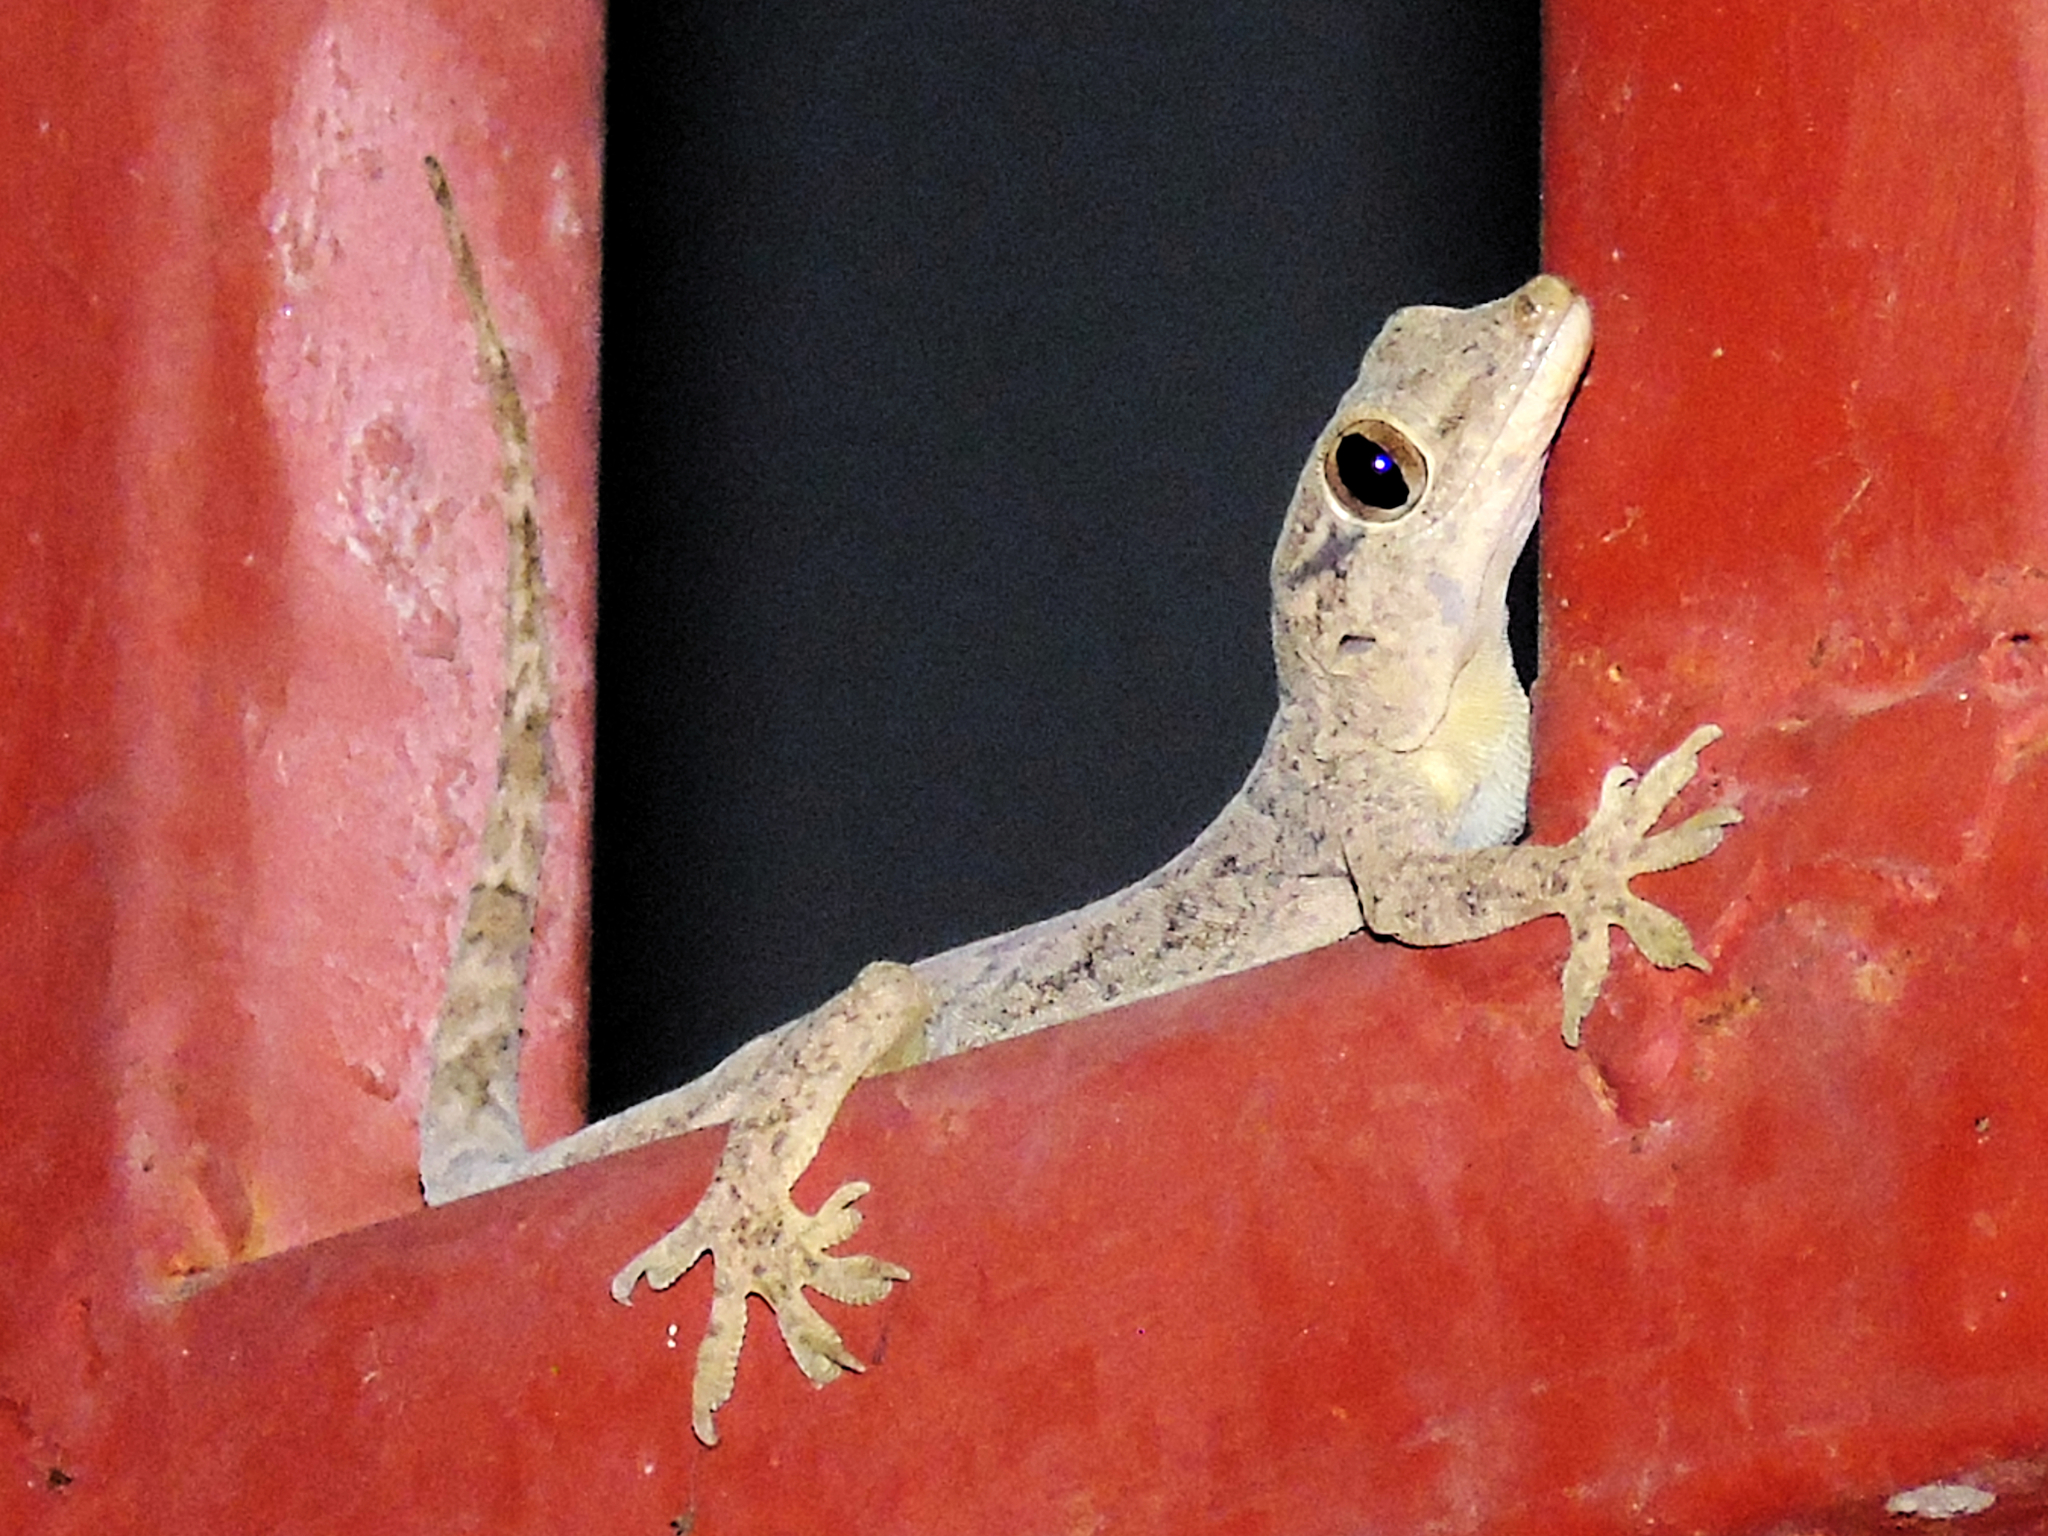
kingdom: Animalia
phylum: Chordata
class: Squamata
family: Gekkonidae
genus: Hemidactylus
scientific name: Hemidactylus mabouia
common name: House gecko
